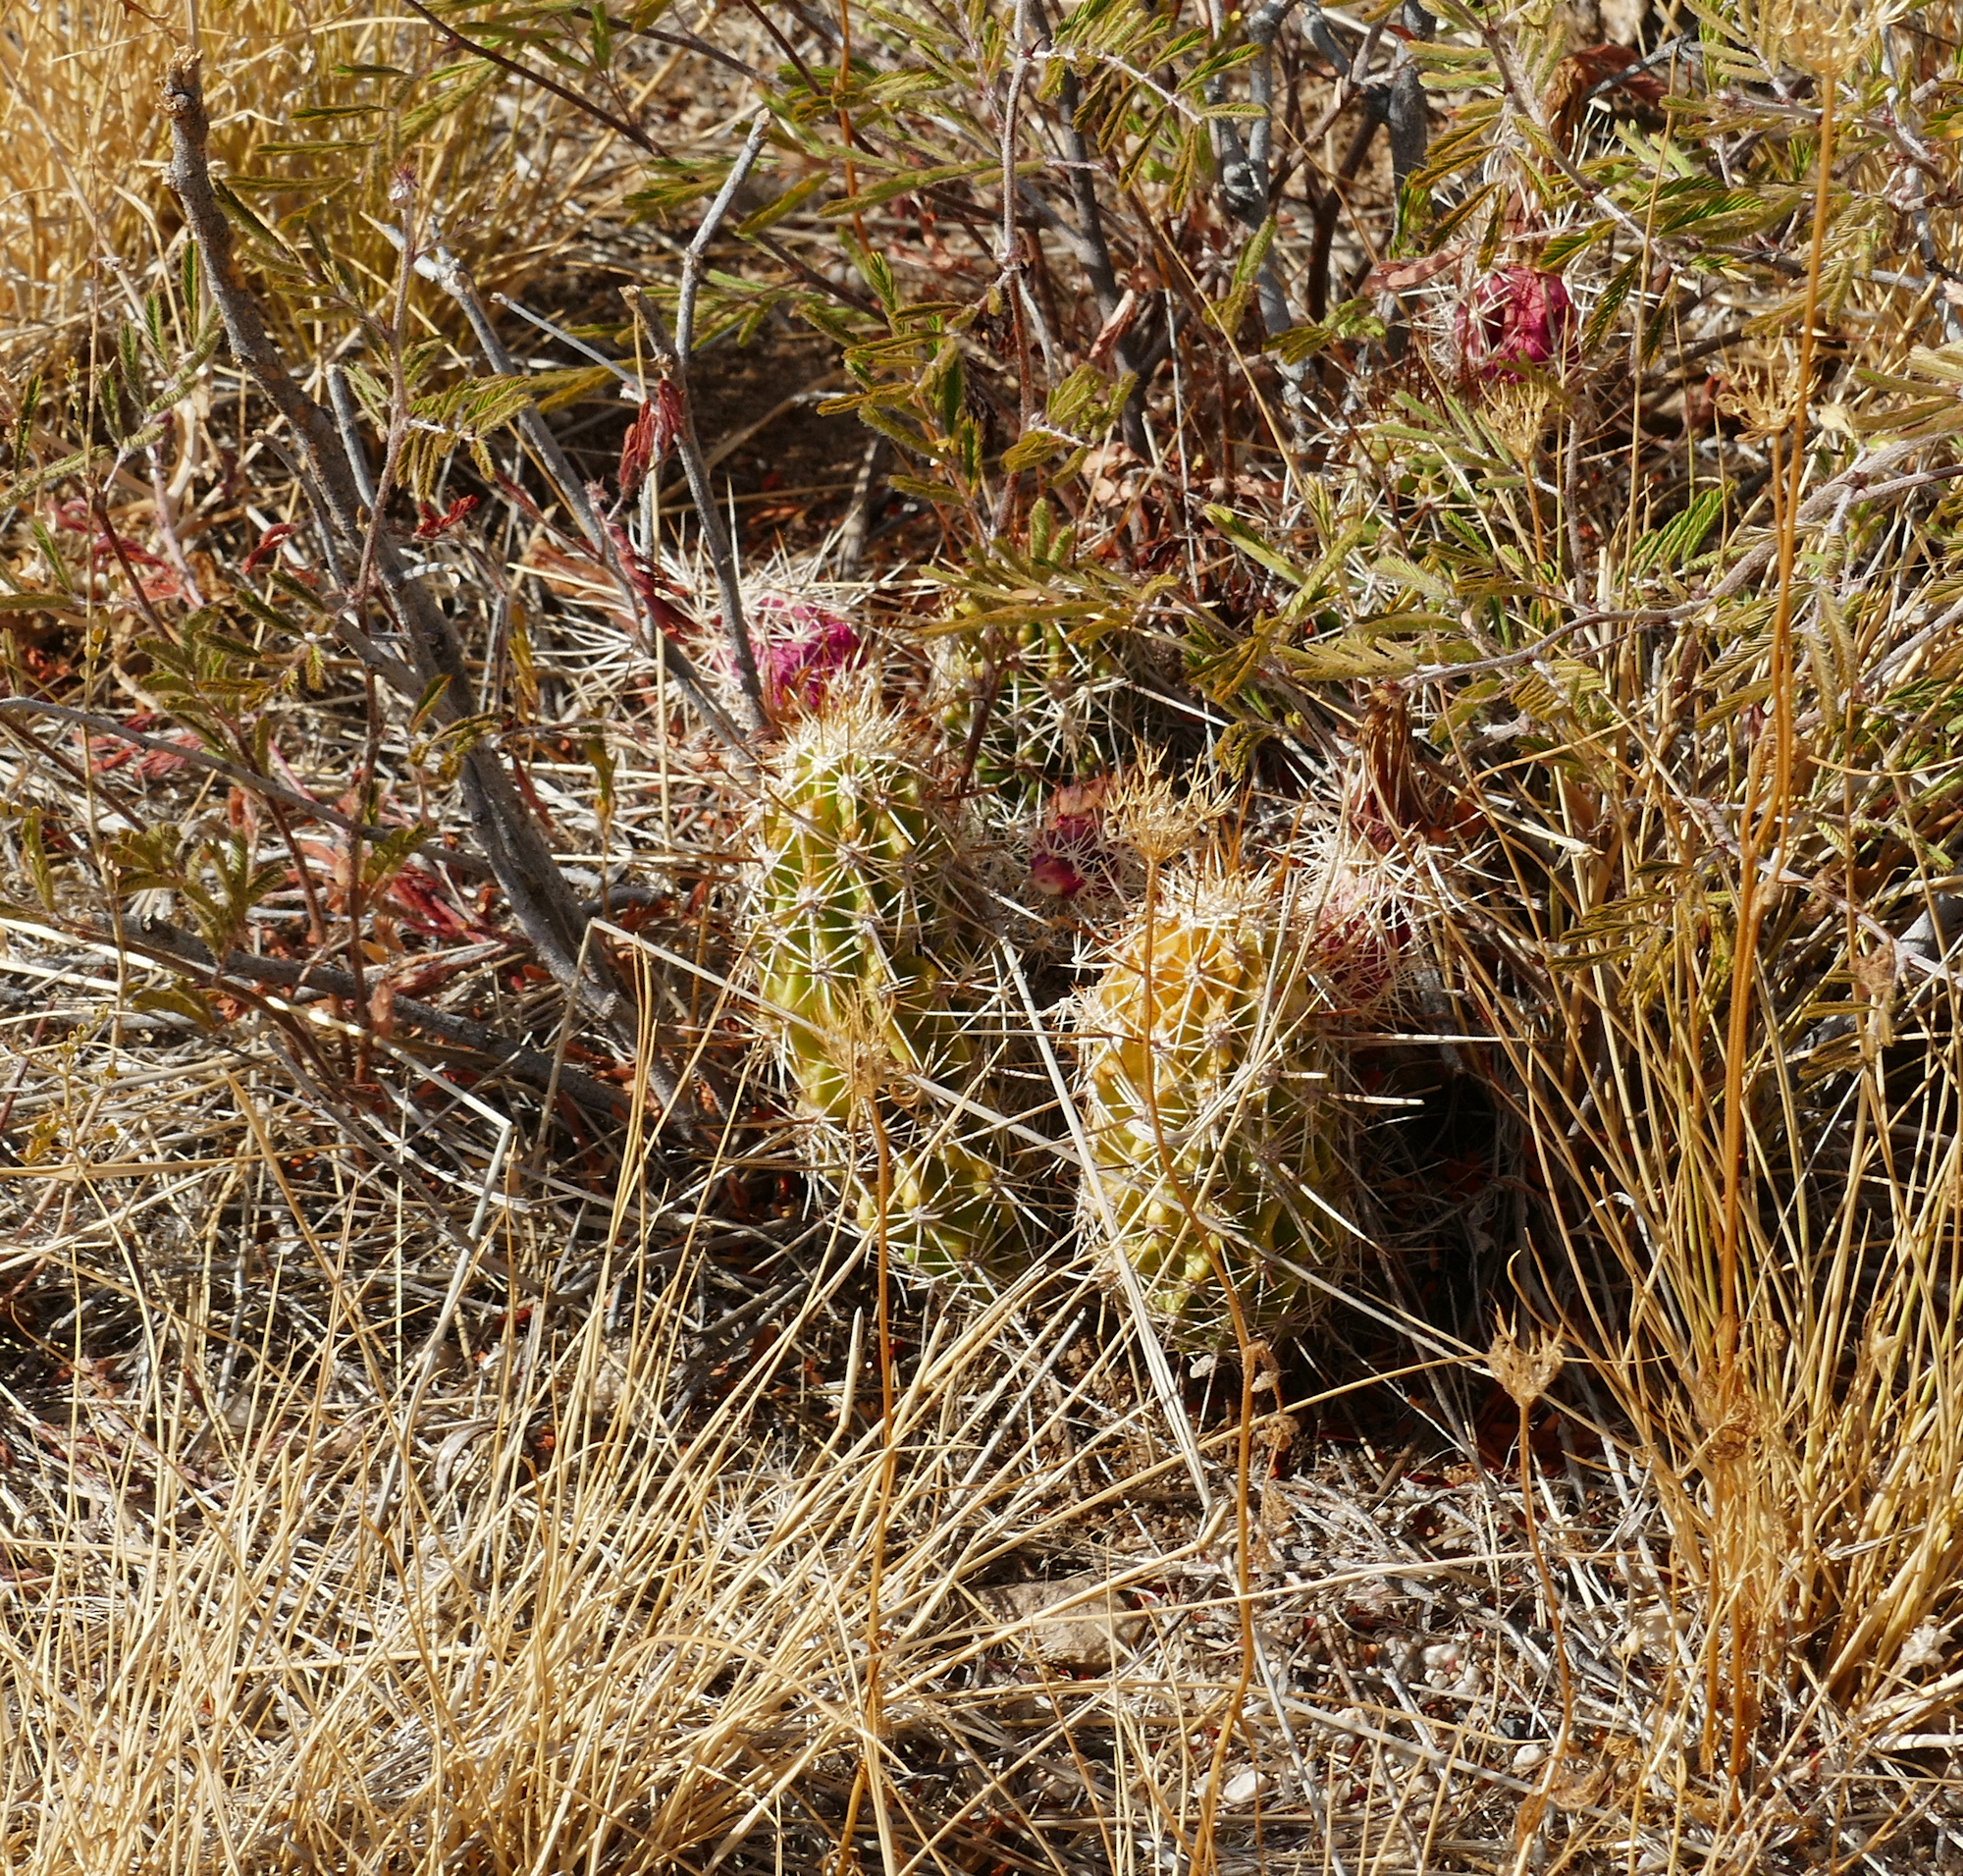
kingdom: Plantae
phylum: Tracheophyta
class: Magnoliopsida
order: Caryophyllales
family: Cactaceae
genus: Echinocereus
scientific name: Echinocereus fasciculatus
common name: Bundle hedgehog
